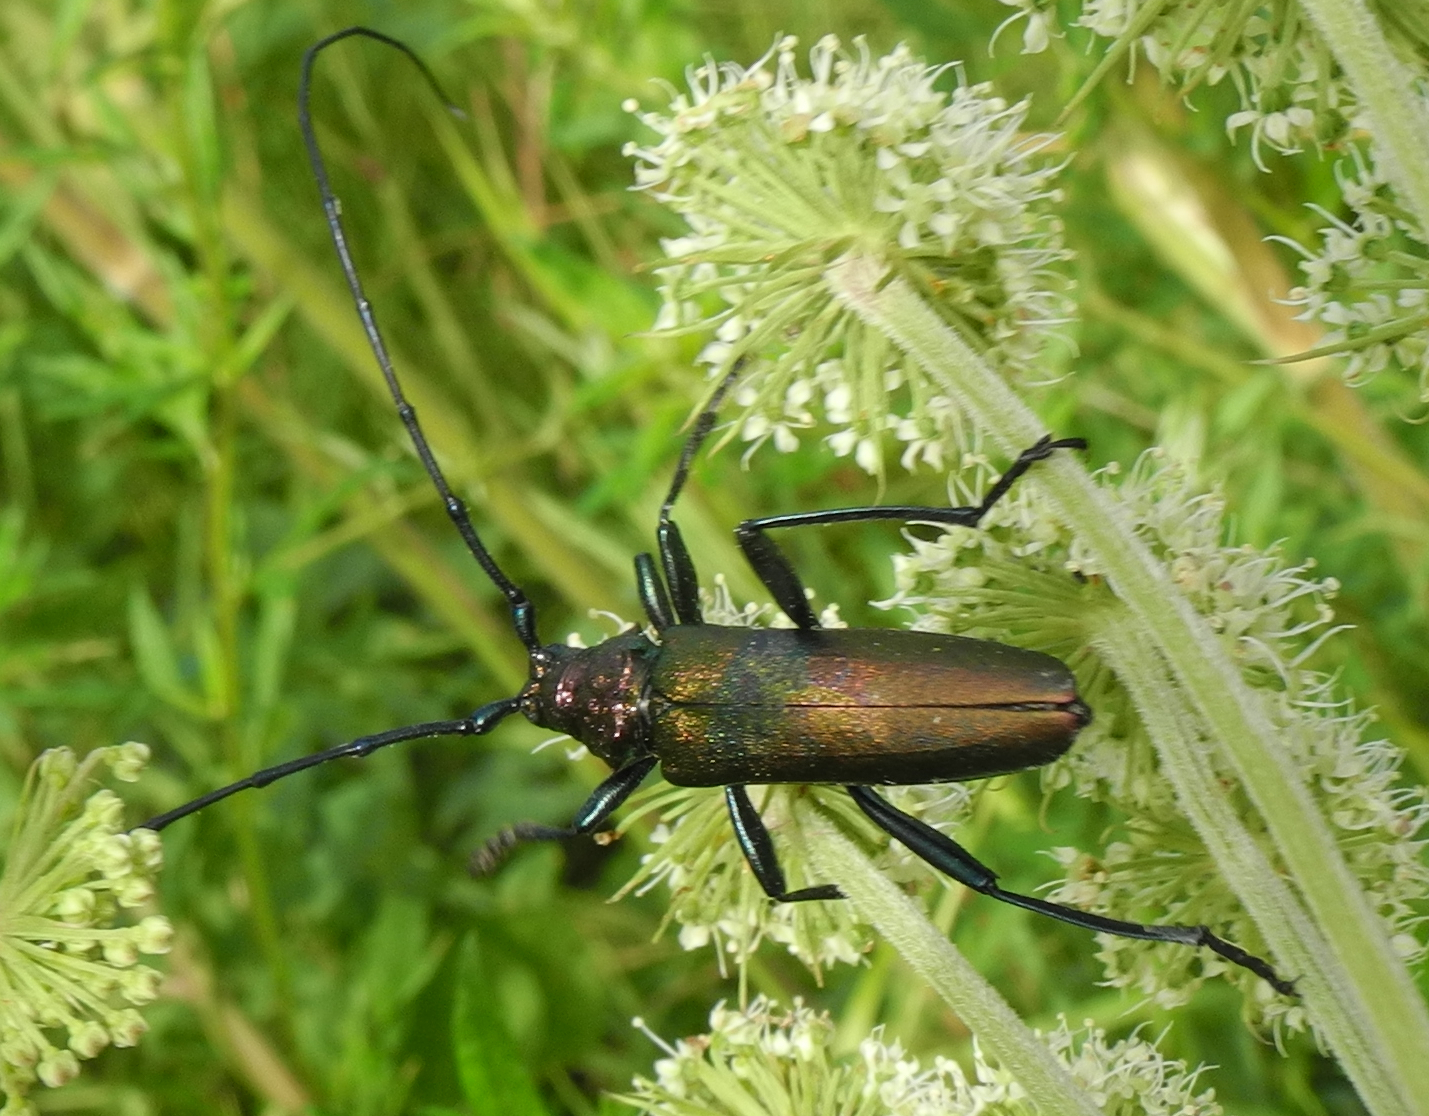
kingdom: Animalia
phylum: Arthropoda
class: Insecta
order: Coleoptera
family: Cerambycidae
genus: Aromia
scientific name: Aromia moschata
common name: Musk beetle
